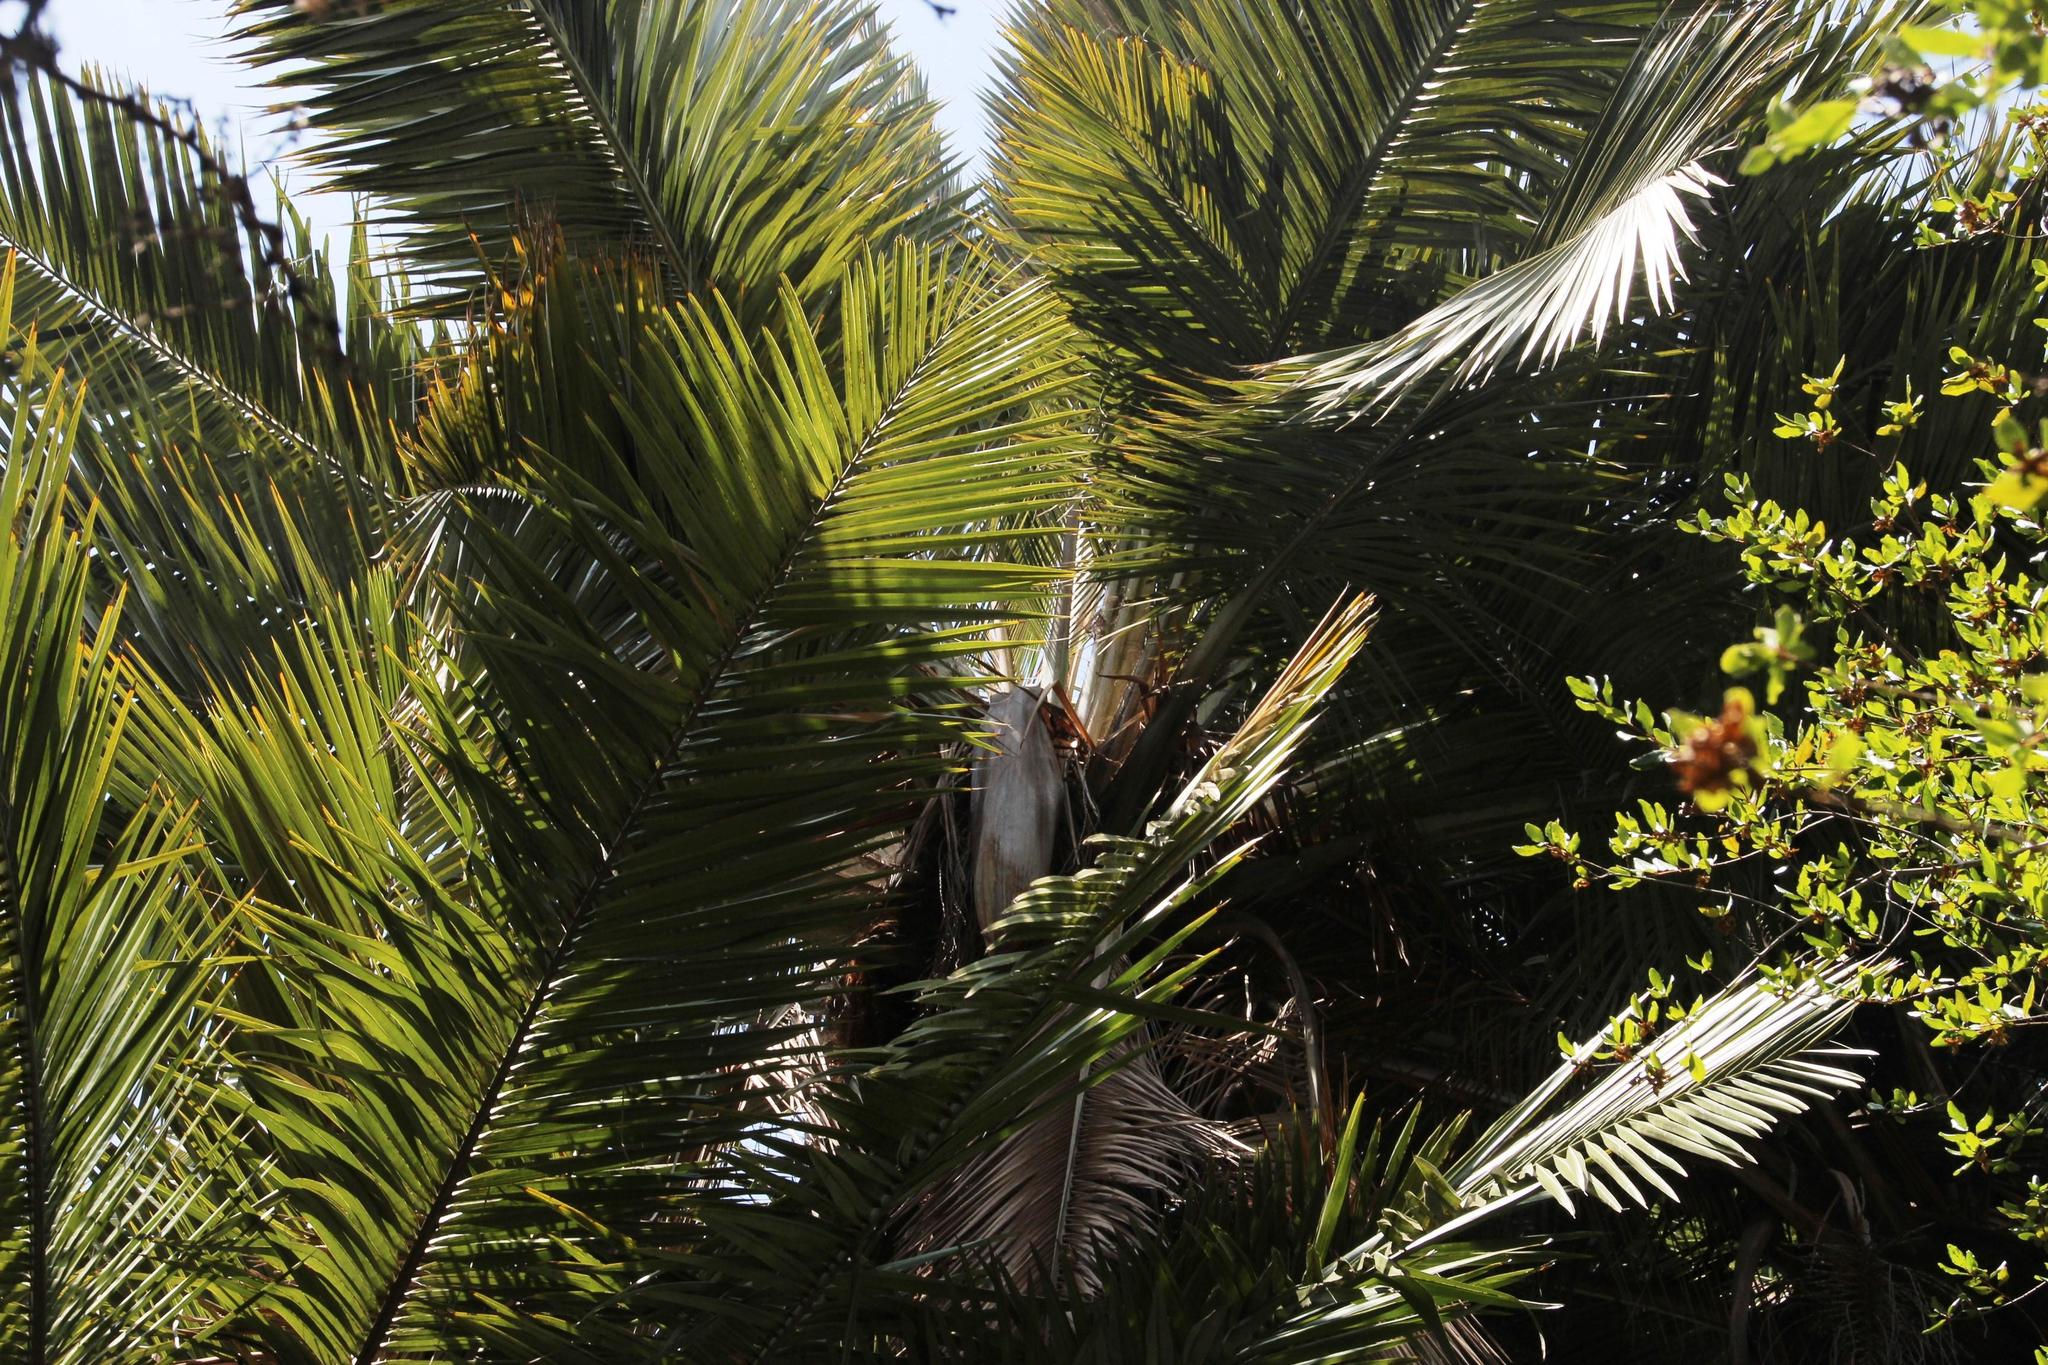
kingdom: Plantae
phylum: Tracheophyta
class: Liliopsida
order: Arecales
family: Arecaceae
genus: Jubaea
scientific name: Jubaea chilensis
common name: Coquito palm
